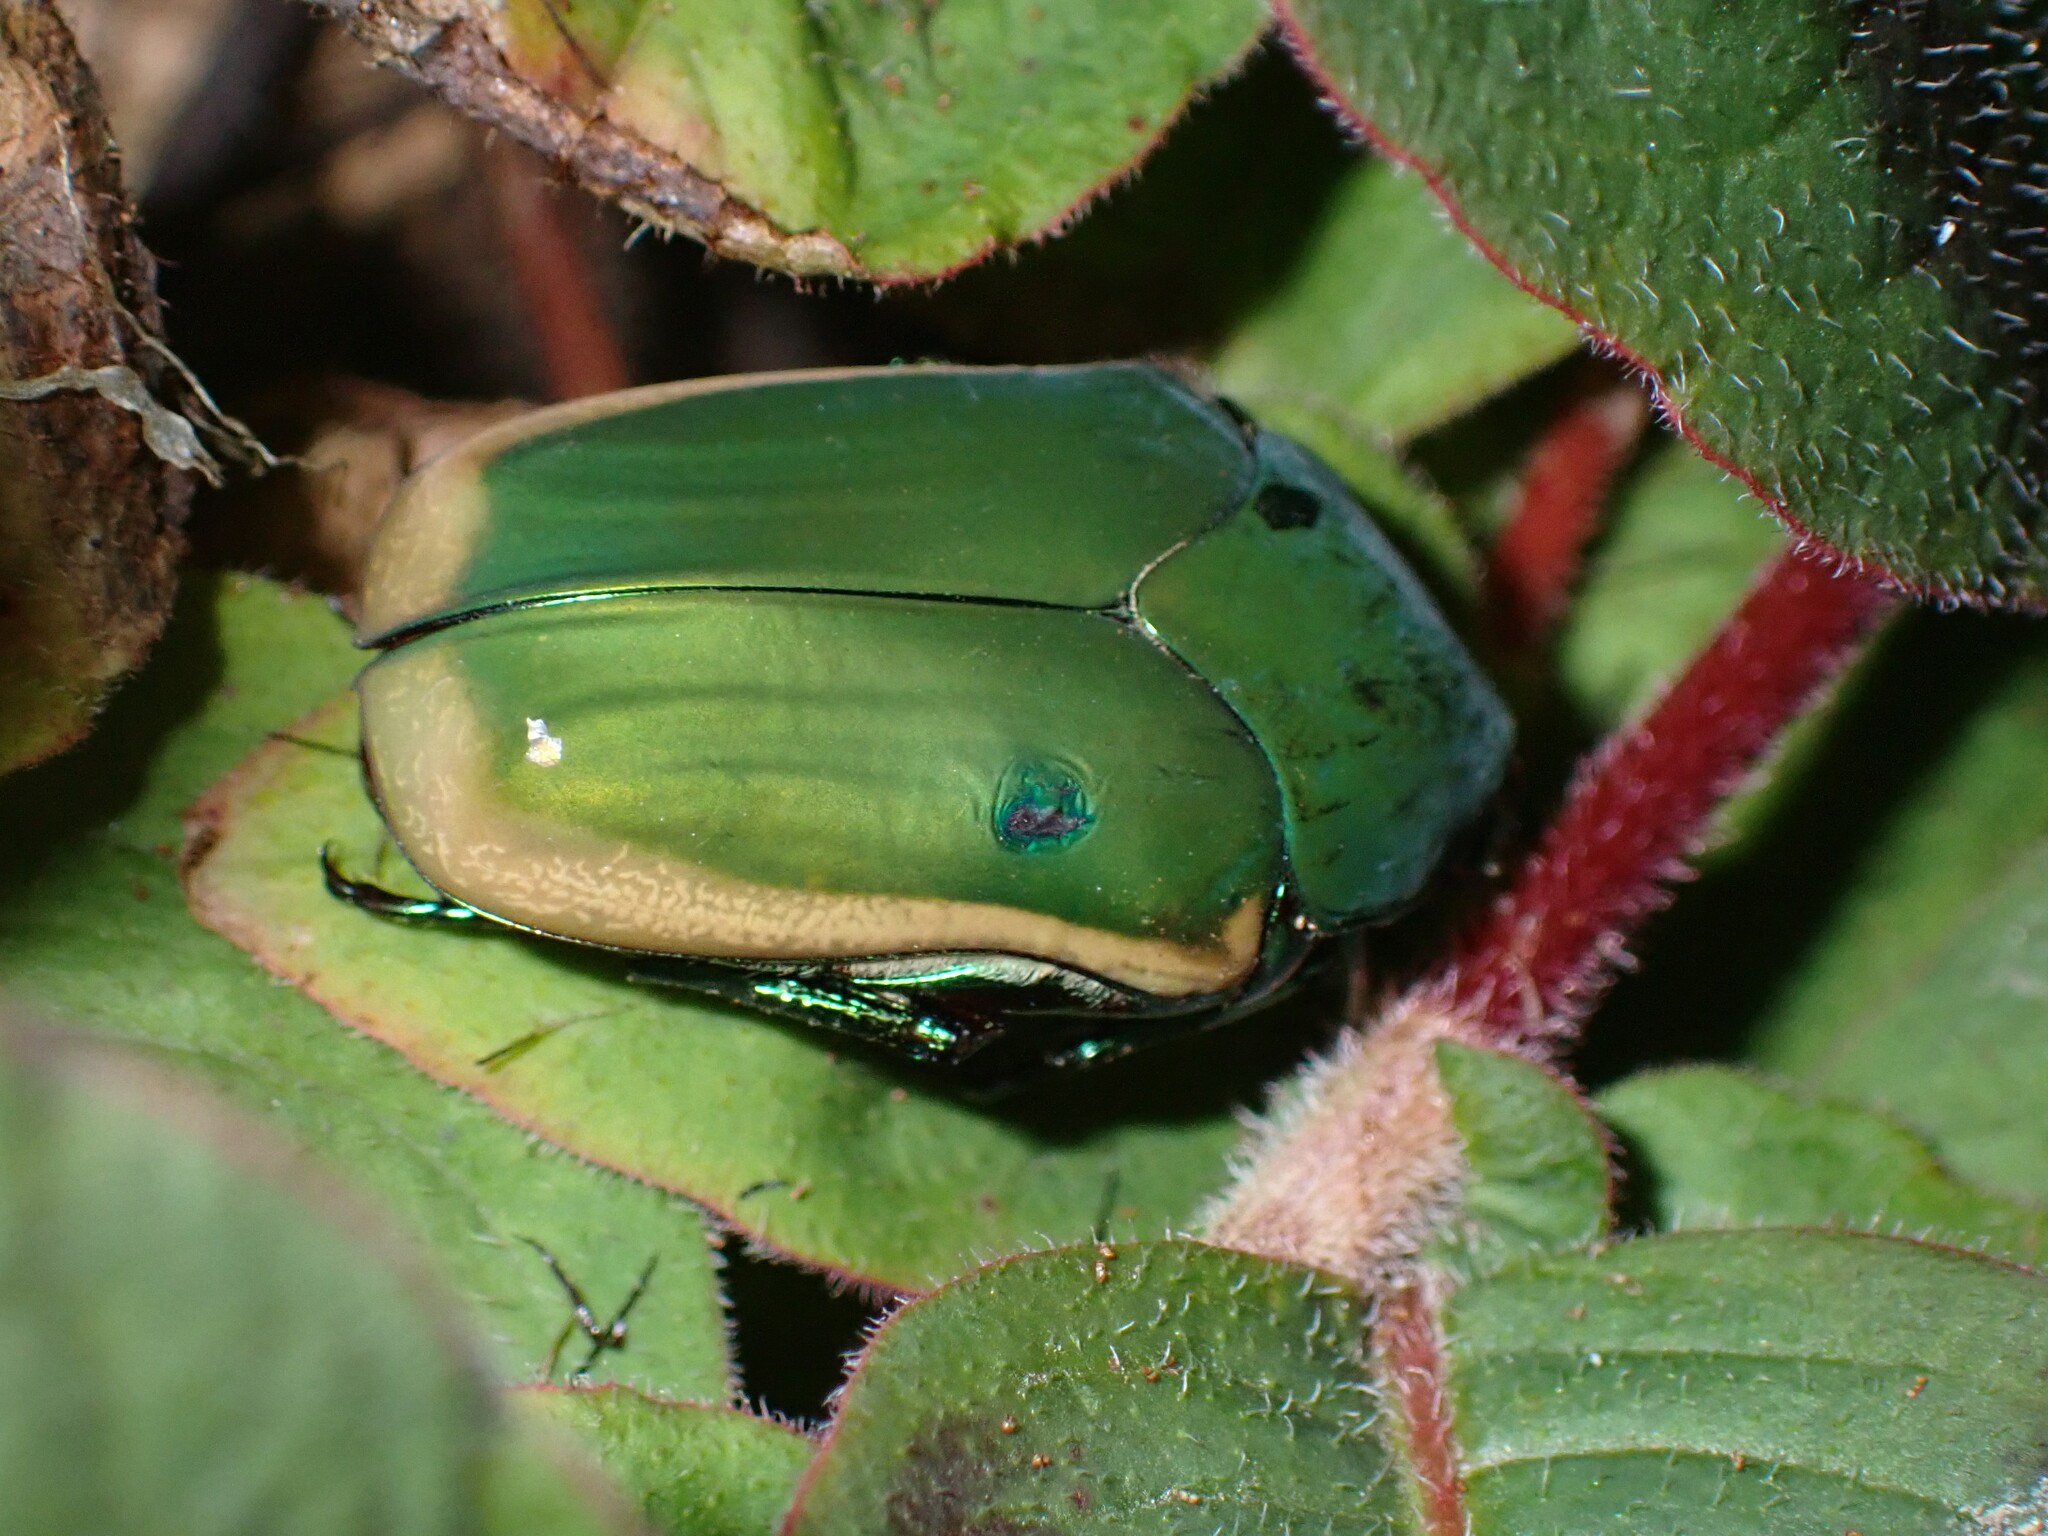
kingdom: Animalia
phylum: Arthropoda
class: Insecta
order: Coleoptera
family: Scarabaeidae
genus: Cotinis
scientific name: Cotinis mutabilis
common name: Figeater beetle
